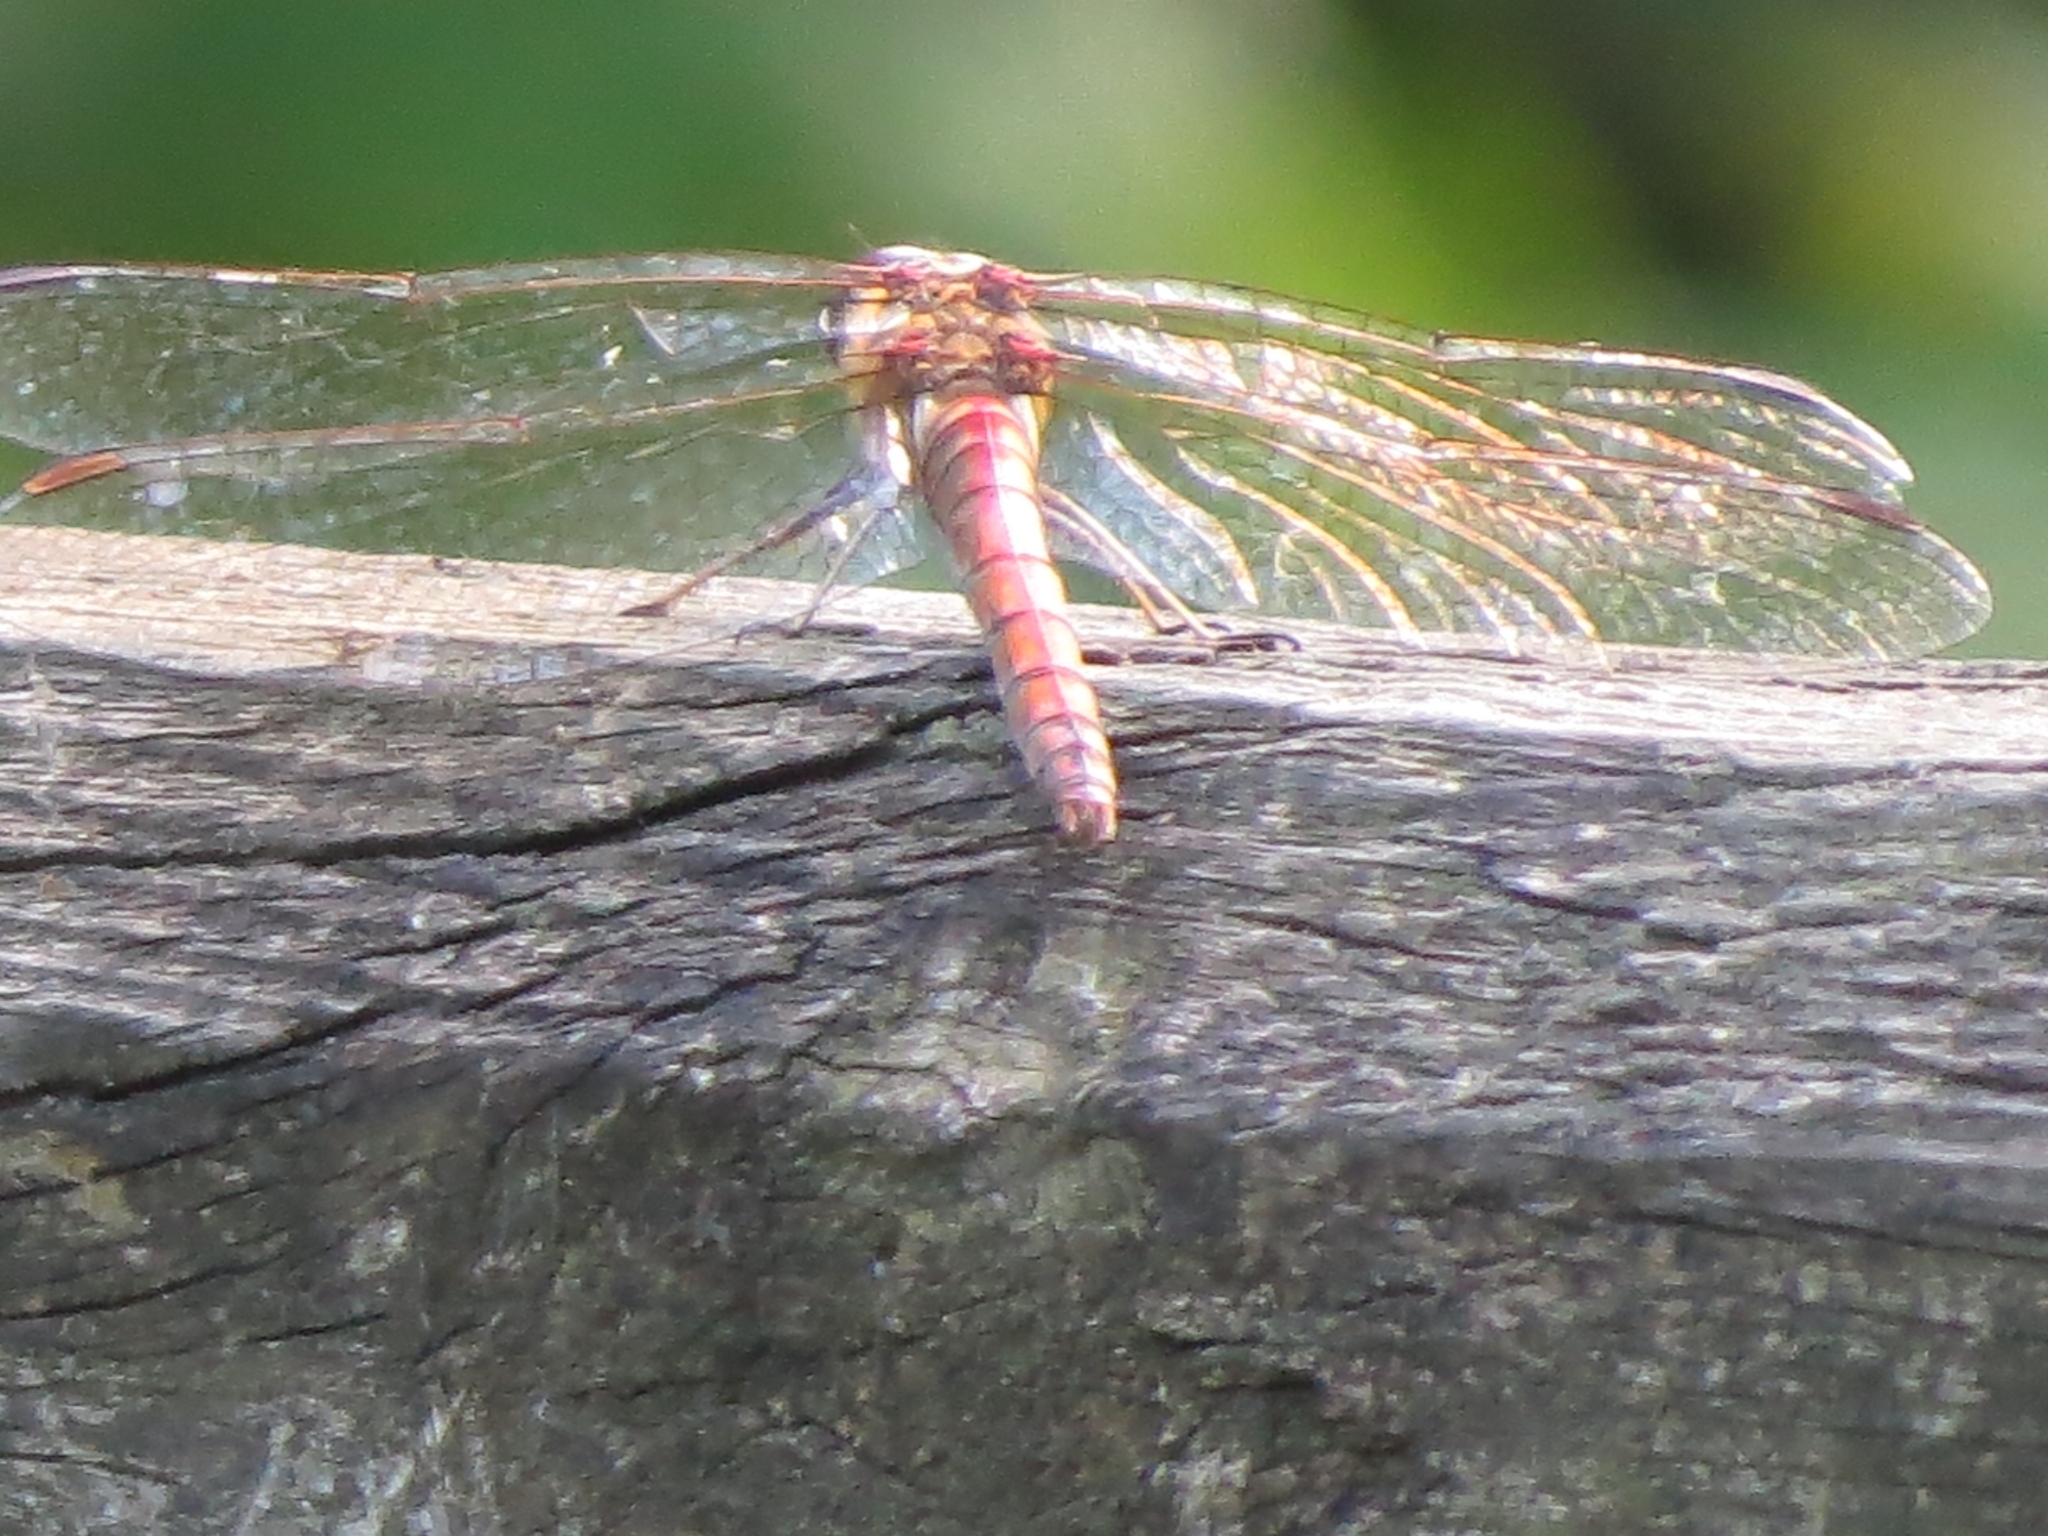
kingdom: Animalia
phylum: Arthropoda
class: Insecta
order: Odonata
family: Libellulidae
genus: Sympetrum
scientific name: Sympetrum striolatum
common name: Common darter
